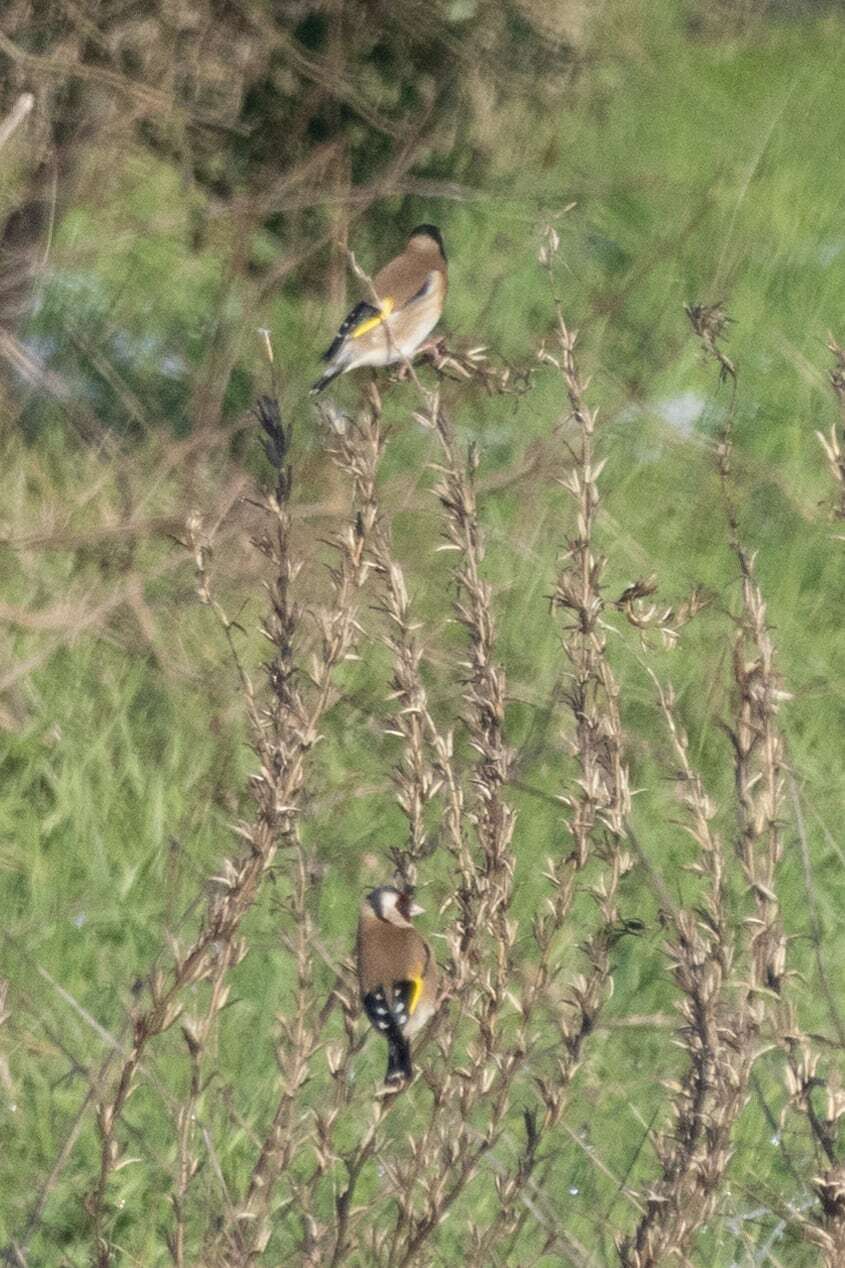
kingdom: Animalia
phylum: Chordata
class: Aves
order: Passeriformes
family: Fringillidae
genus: Carduelis
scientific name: Carduelis carduelis
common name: European goldfinch
